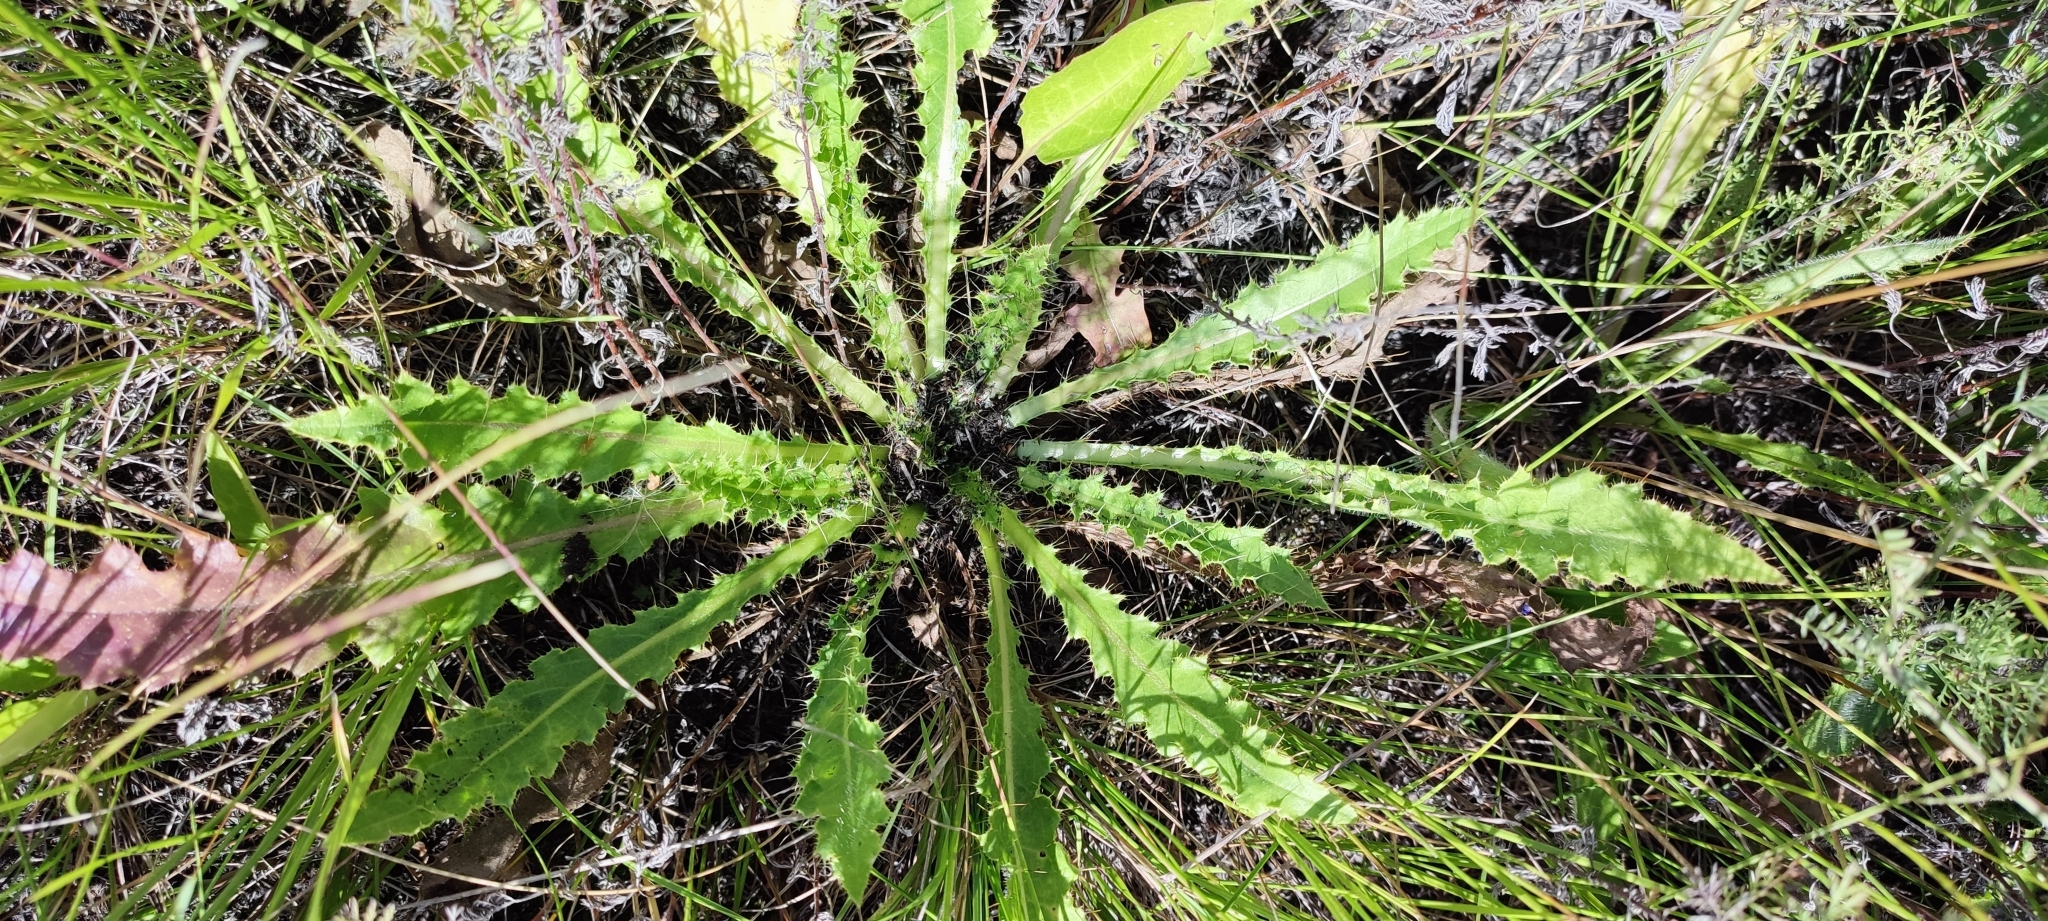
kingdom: Plantae
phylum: Tracheophyta
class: Magnoliopsida
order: Asterales
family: Asteraceae
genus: Cirsium
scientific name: Cirsium esculentum
